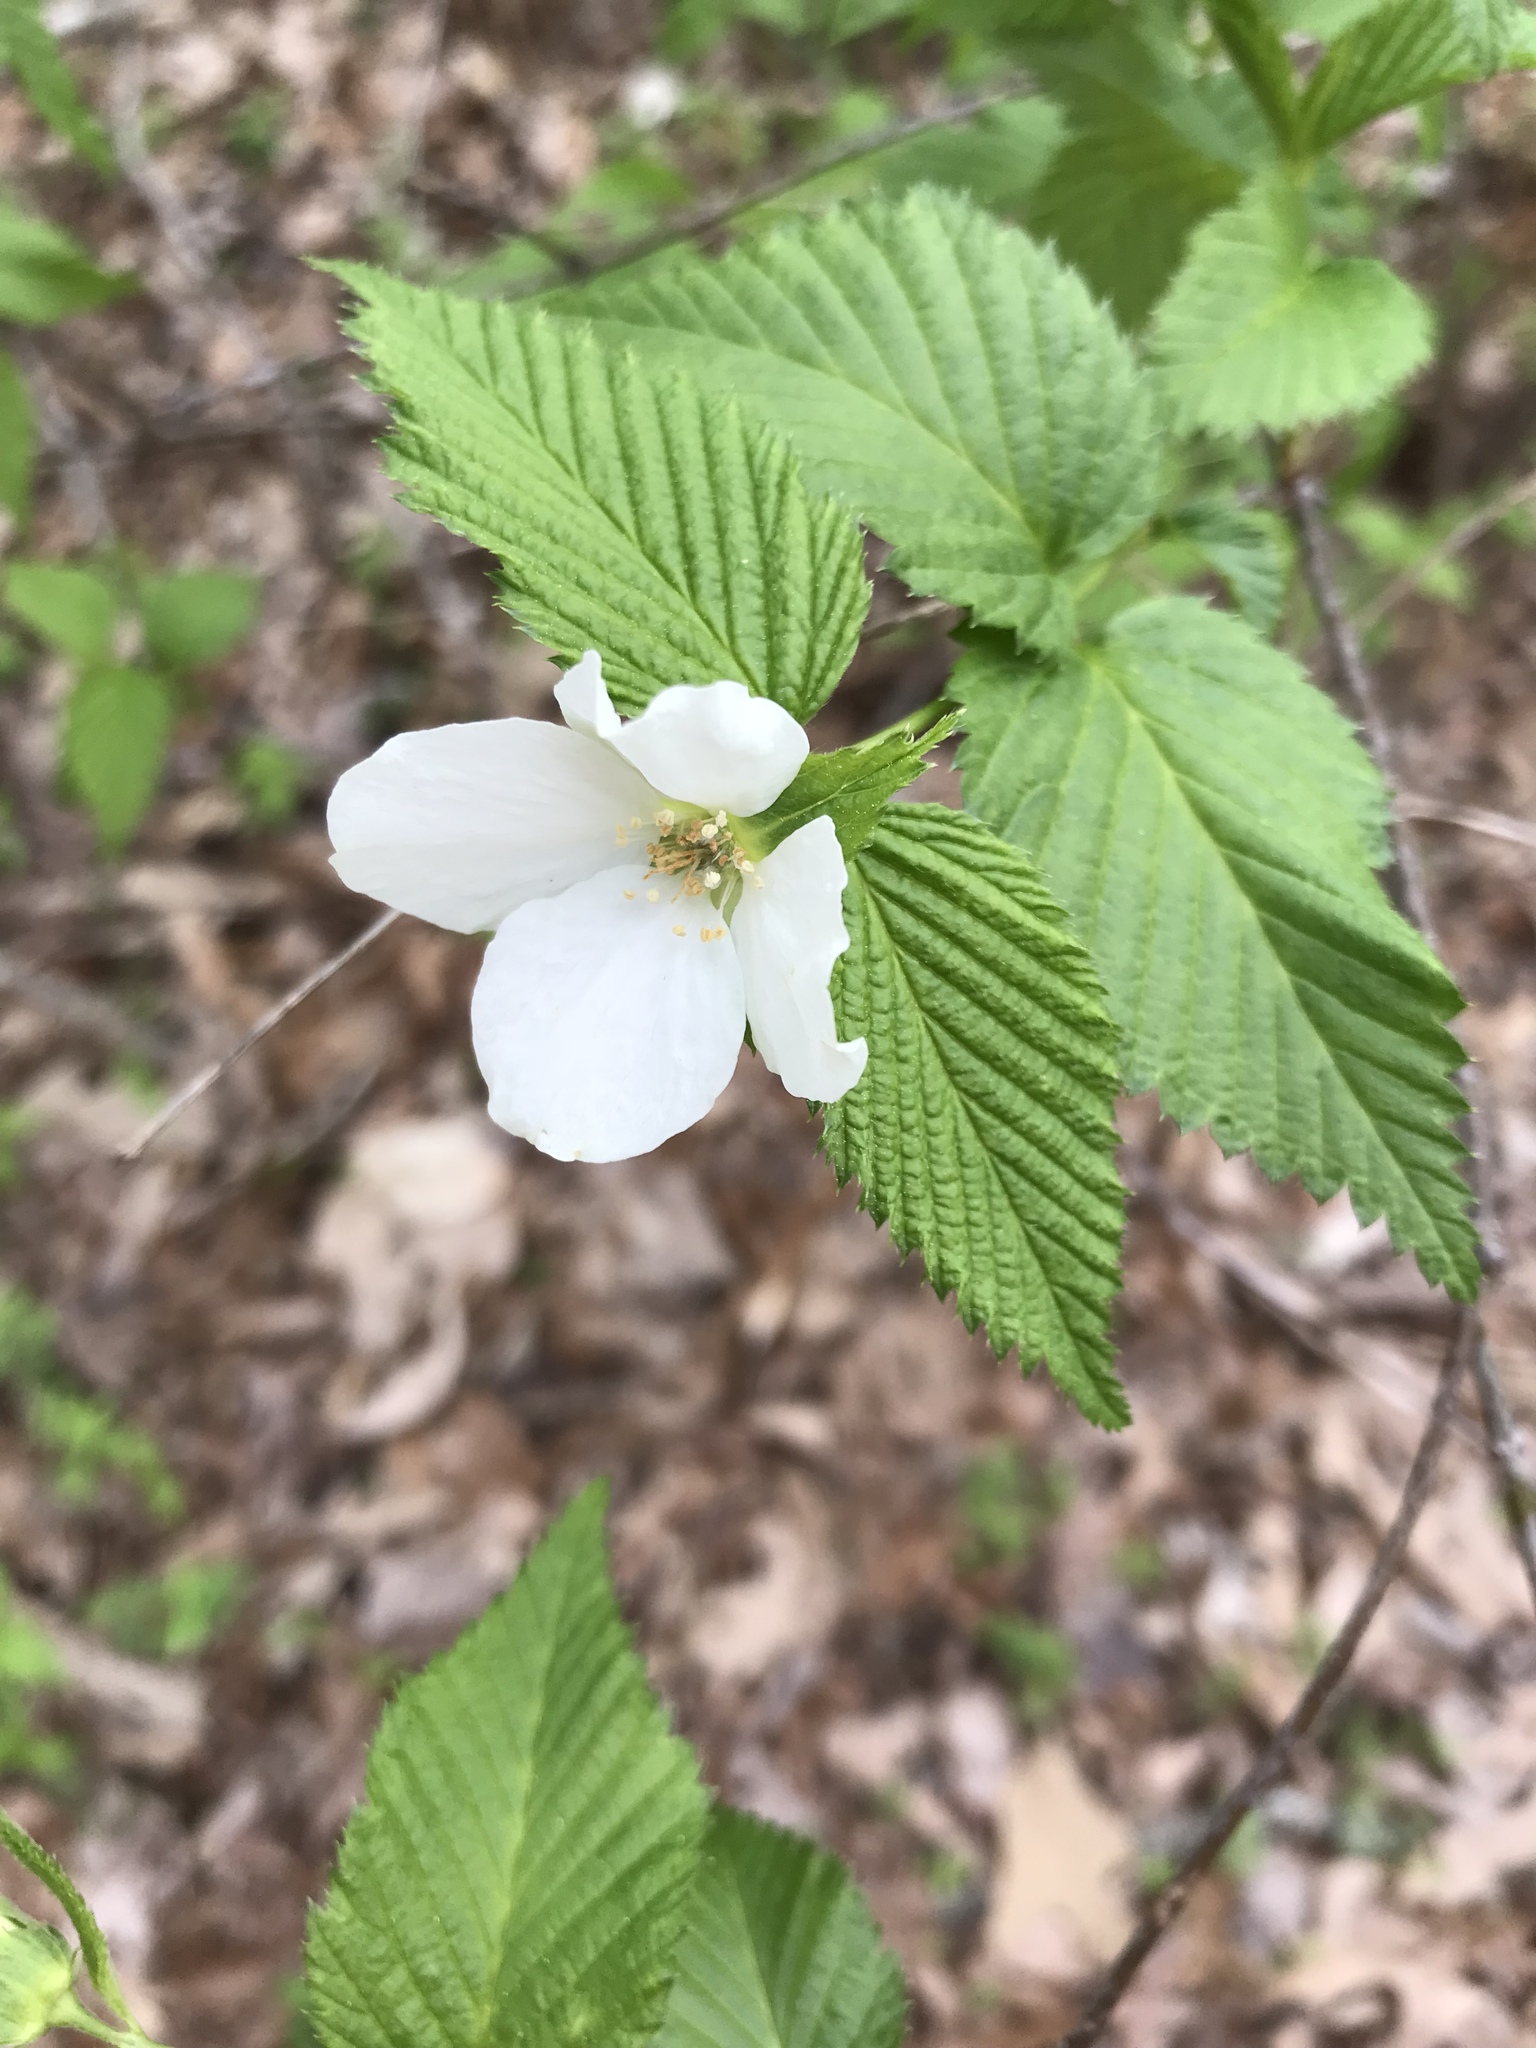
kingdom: Plantae
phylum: Tracheophyta
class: Magnoliopsida
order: Rosales
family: Rosaceae
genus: Rhodotypos
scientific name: Rhodotypos scandens
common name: Jetbead
